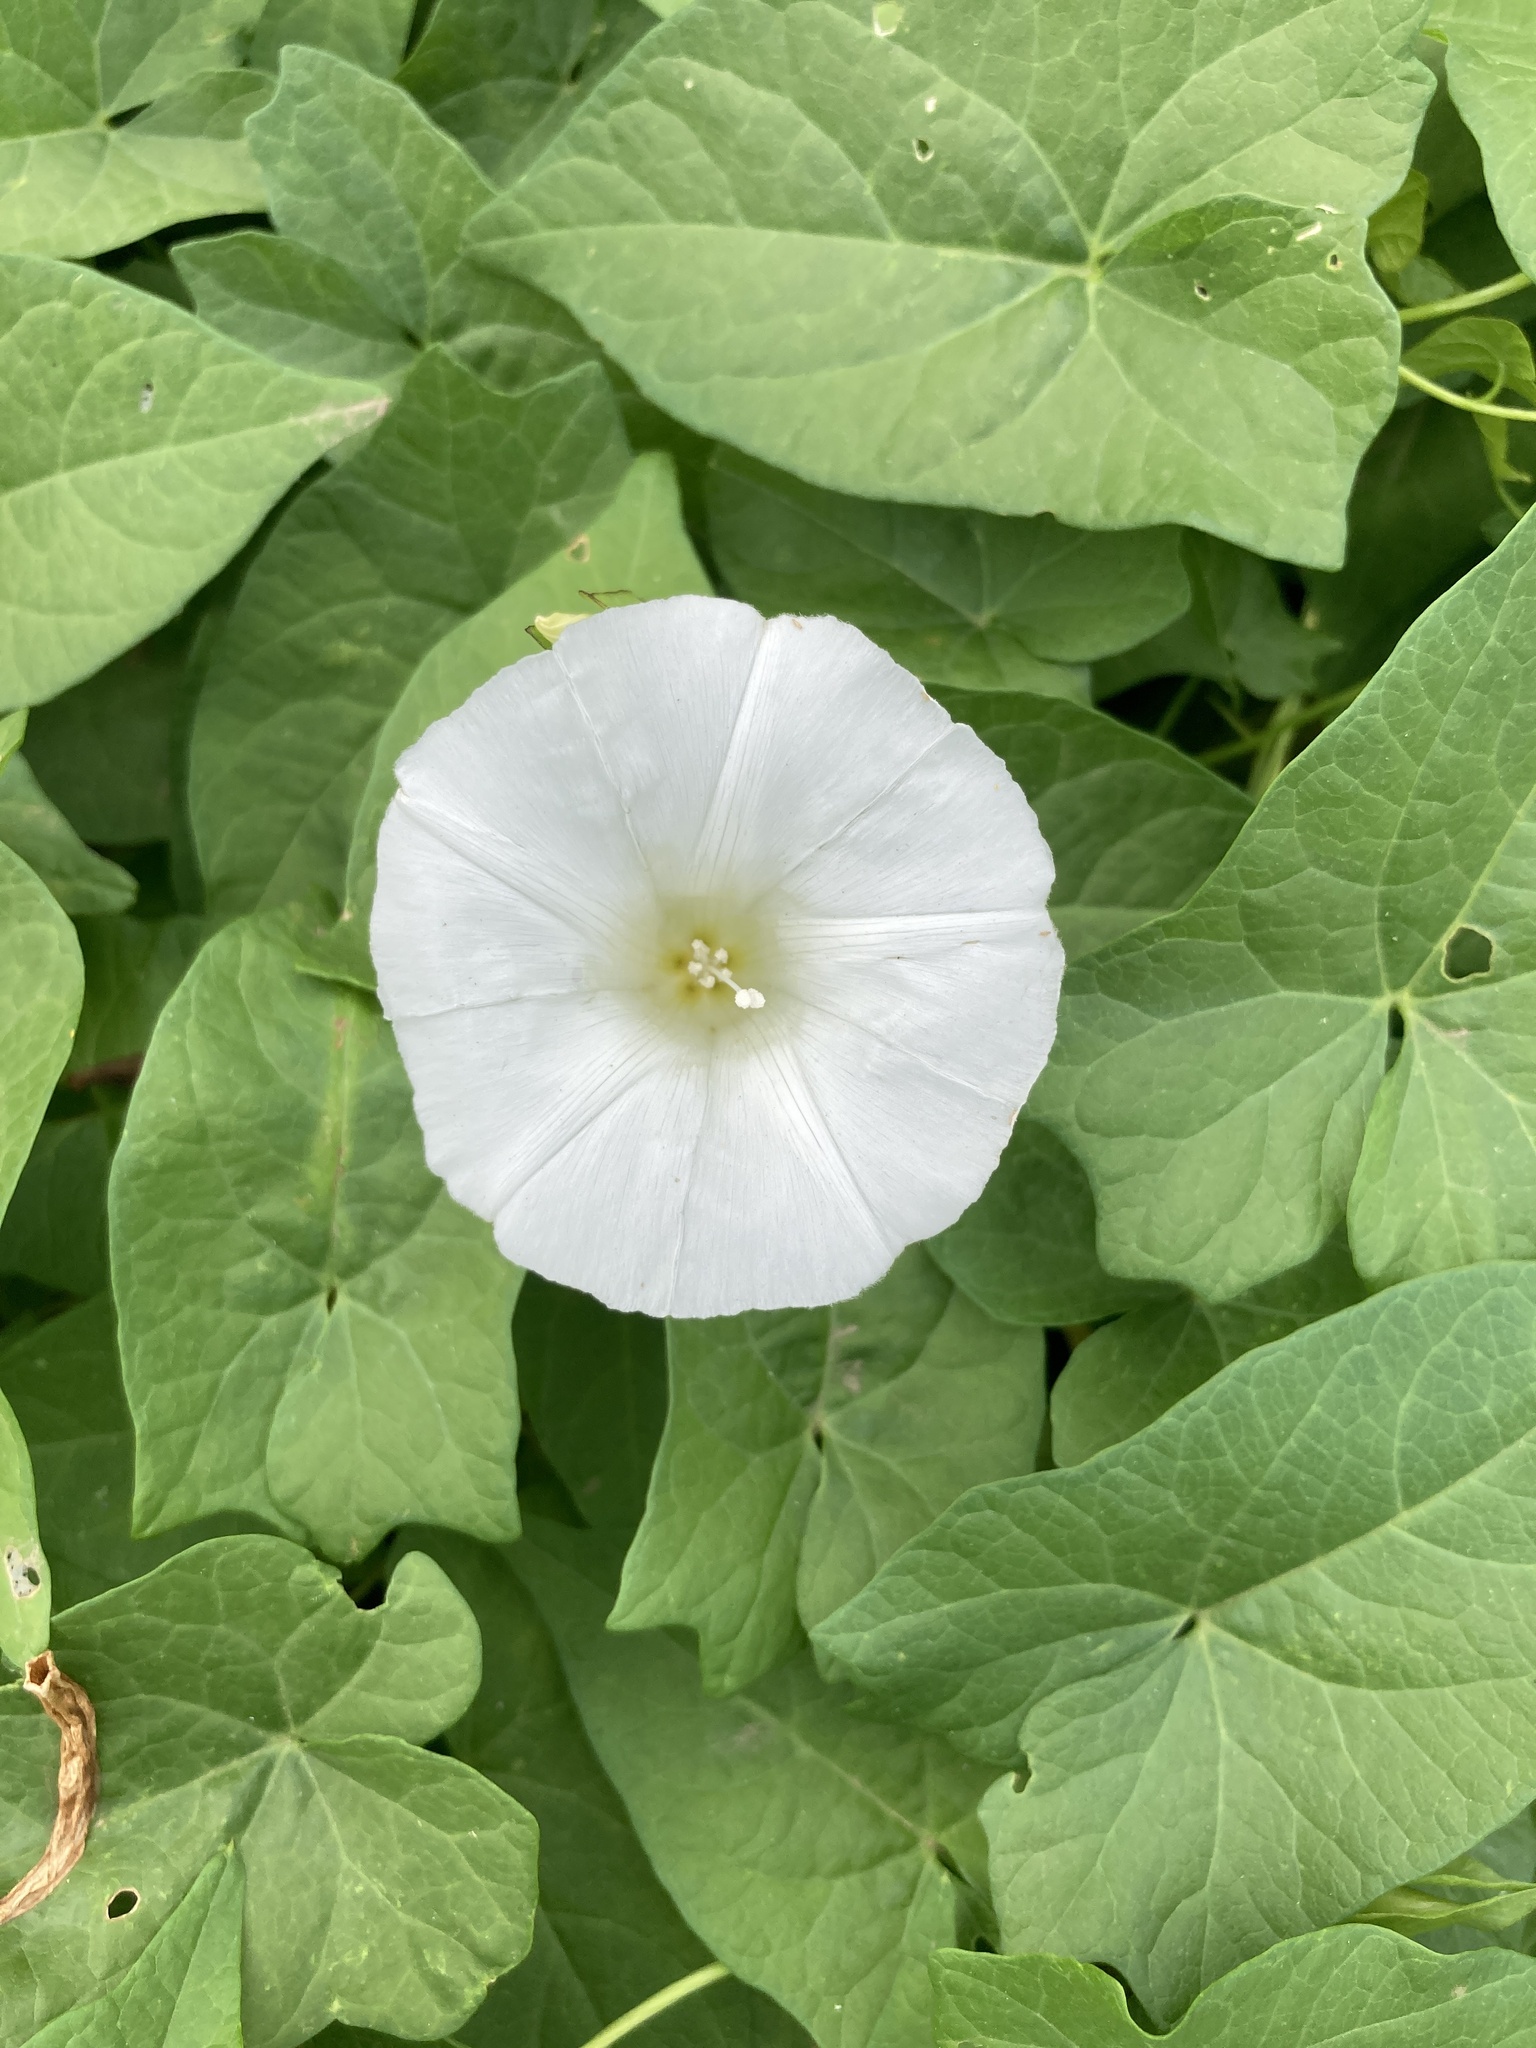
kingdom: Plantae
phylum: Tracheophyta
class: Magnoliopsida
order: Solanales
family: Convolvulaceae
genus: Calystegia
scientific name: Calystegia sepium
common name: Hedge bindweed
